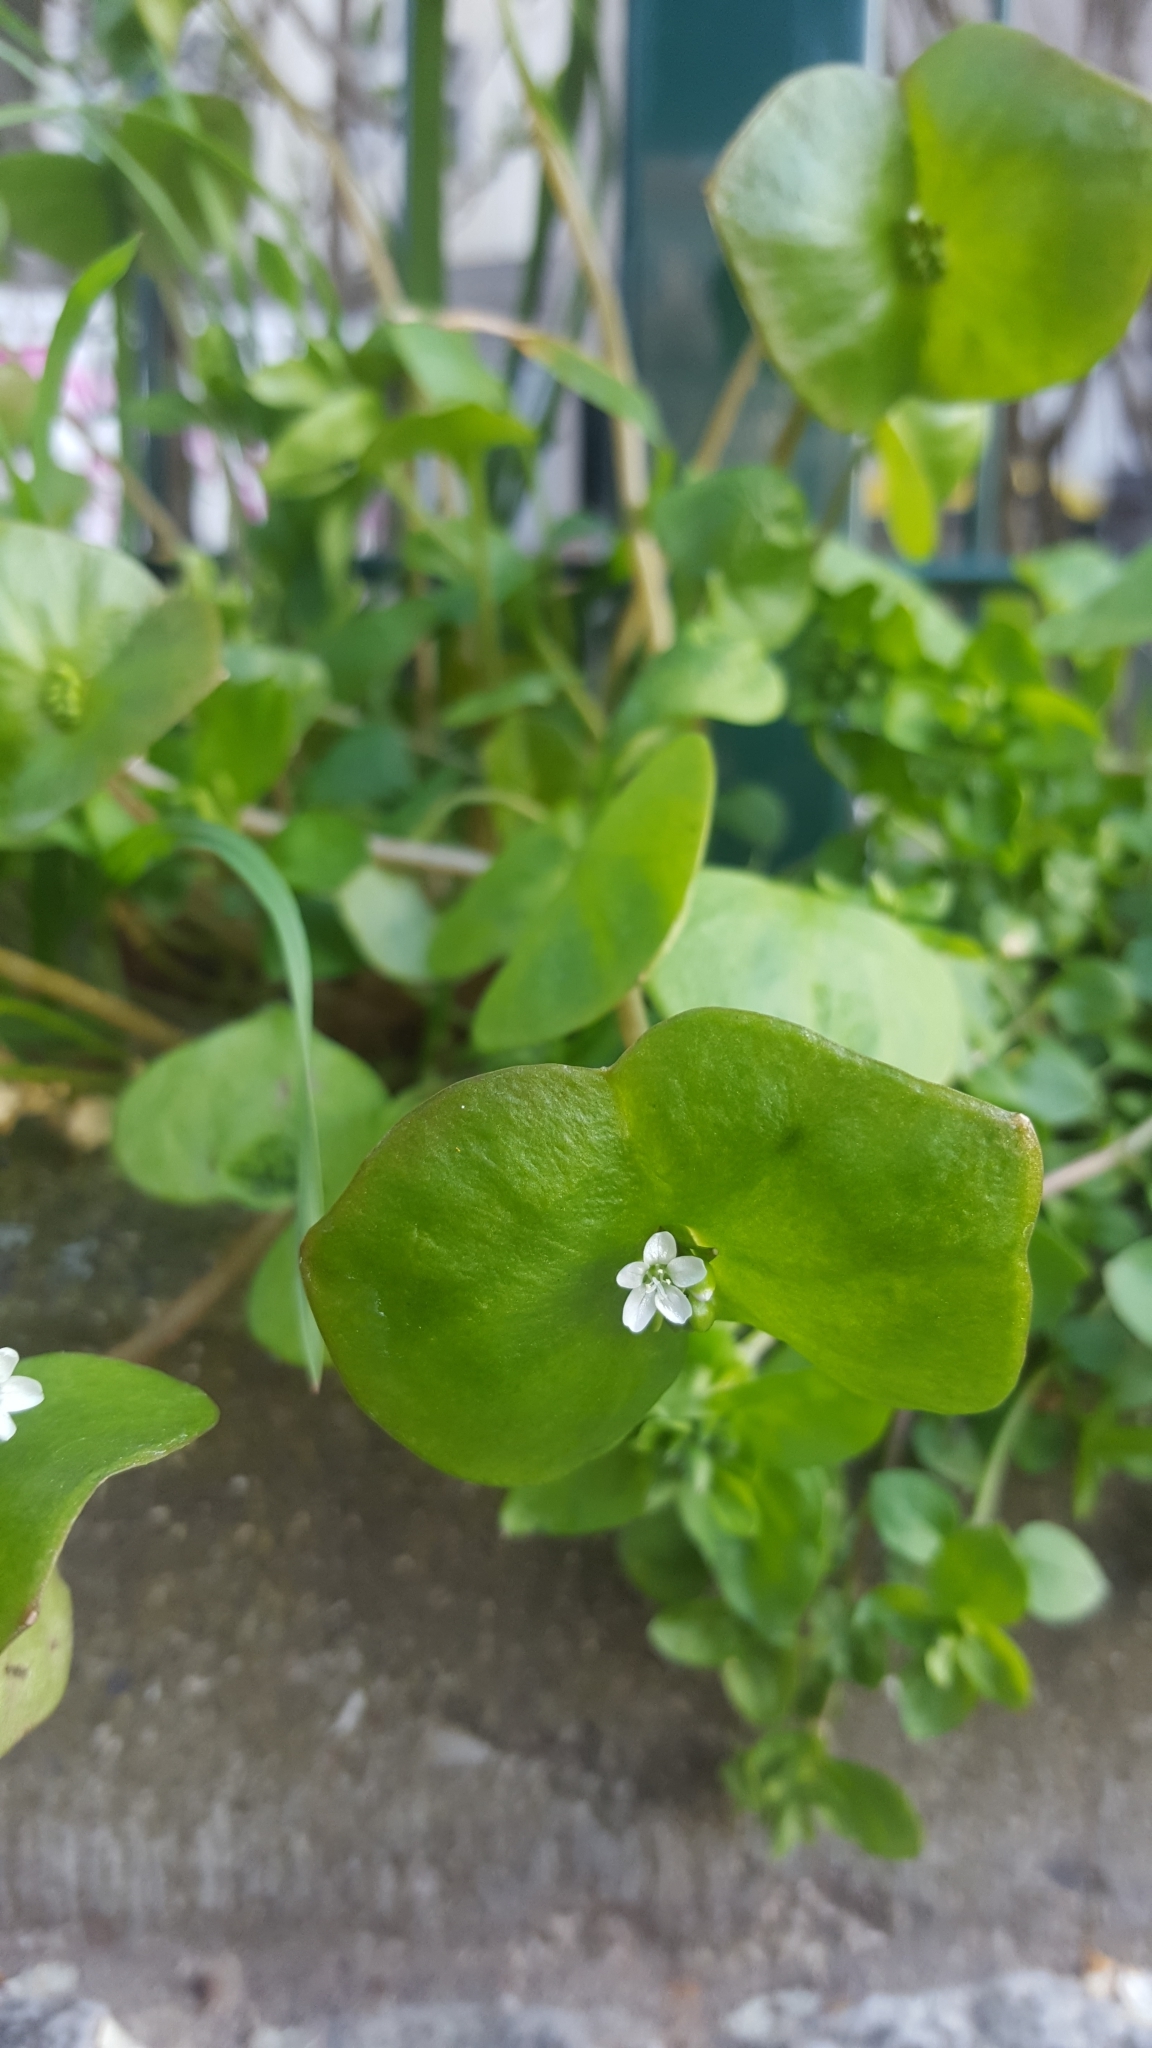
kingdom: Plantae
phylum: Tracheophyta
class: Magnoliopsida
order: Caryophyllales
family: Montiaceae
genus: Claytonia
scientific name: Claytonia perfoliata
